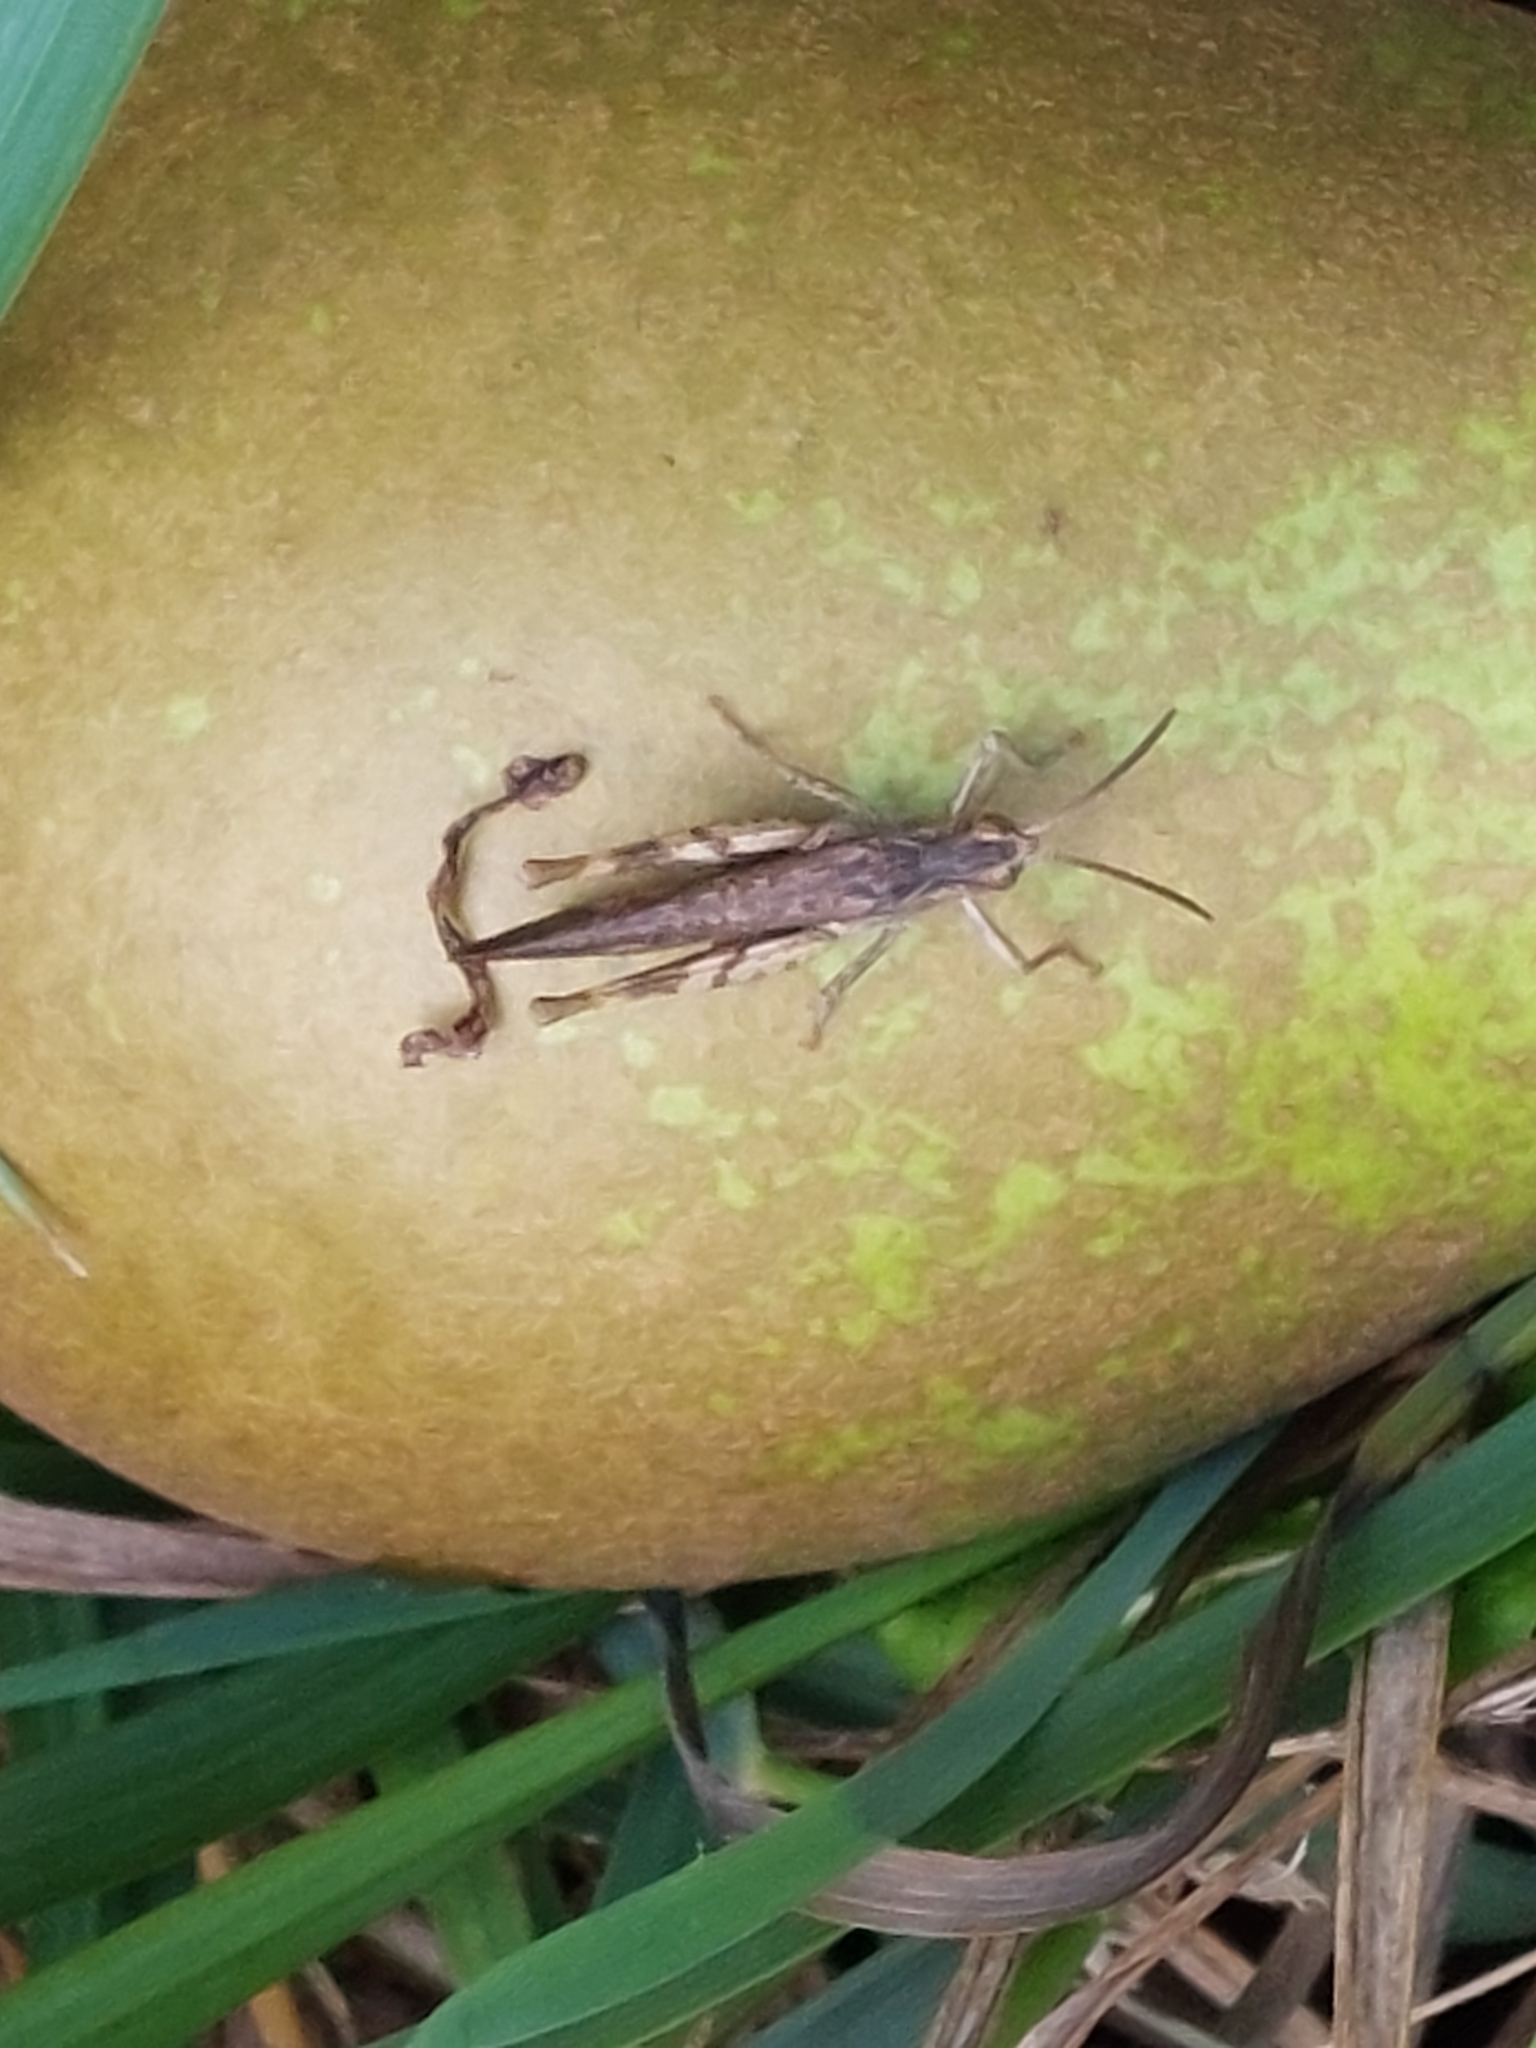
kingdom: Animalia
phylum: Arthropoda
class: Insecta
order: Orthoptera
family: Acrididae
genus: Chorthippus
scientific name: Chorthippus brunneus
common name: Field grasshopper
